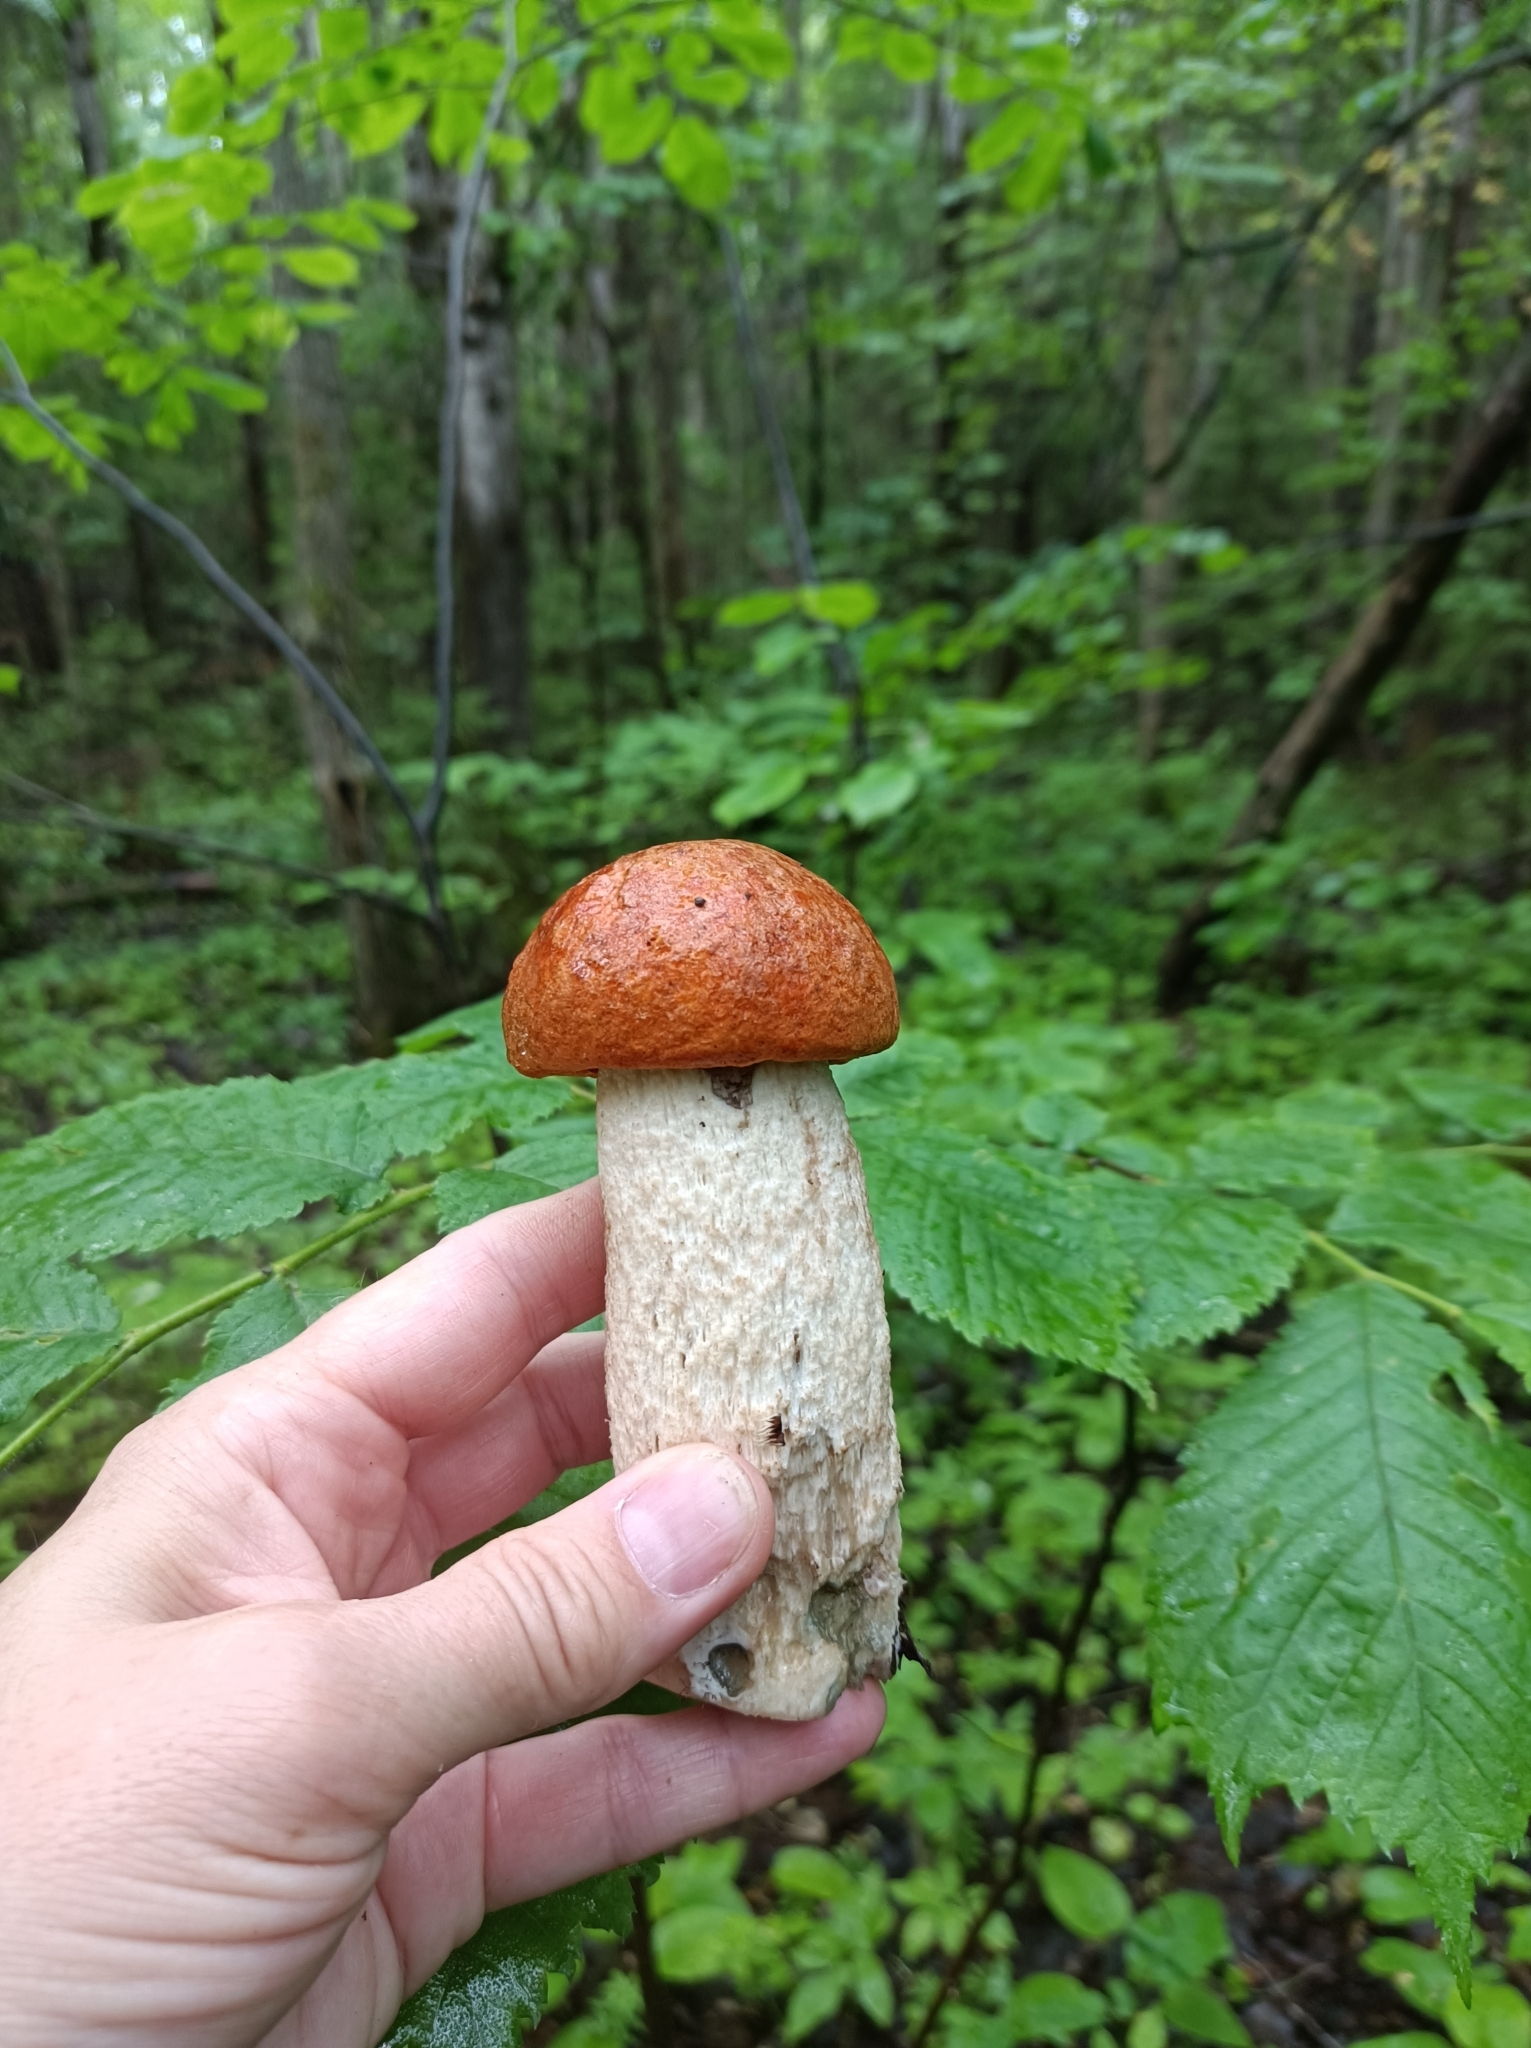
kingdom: Fungi
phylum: Basidiomycota
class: Agaricomycetes
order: Boletales
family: Boletaceae
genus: Leccinum
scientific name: Leccinum albostipitatum
